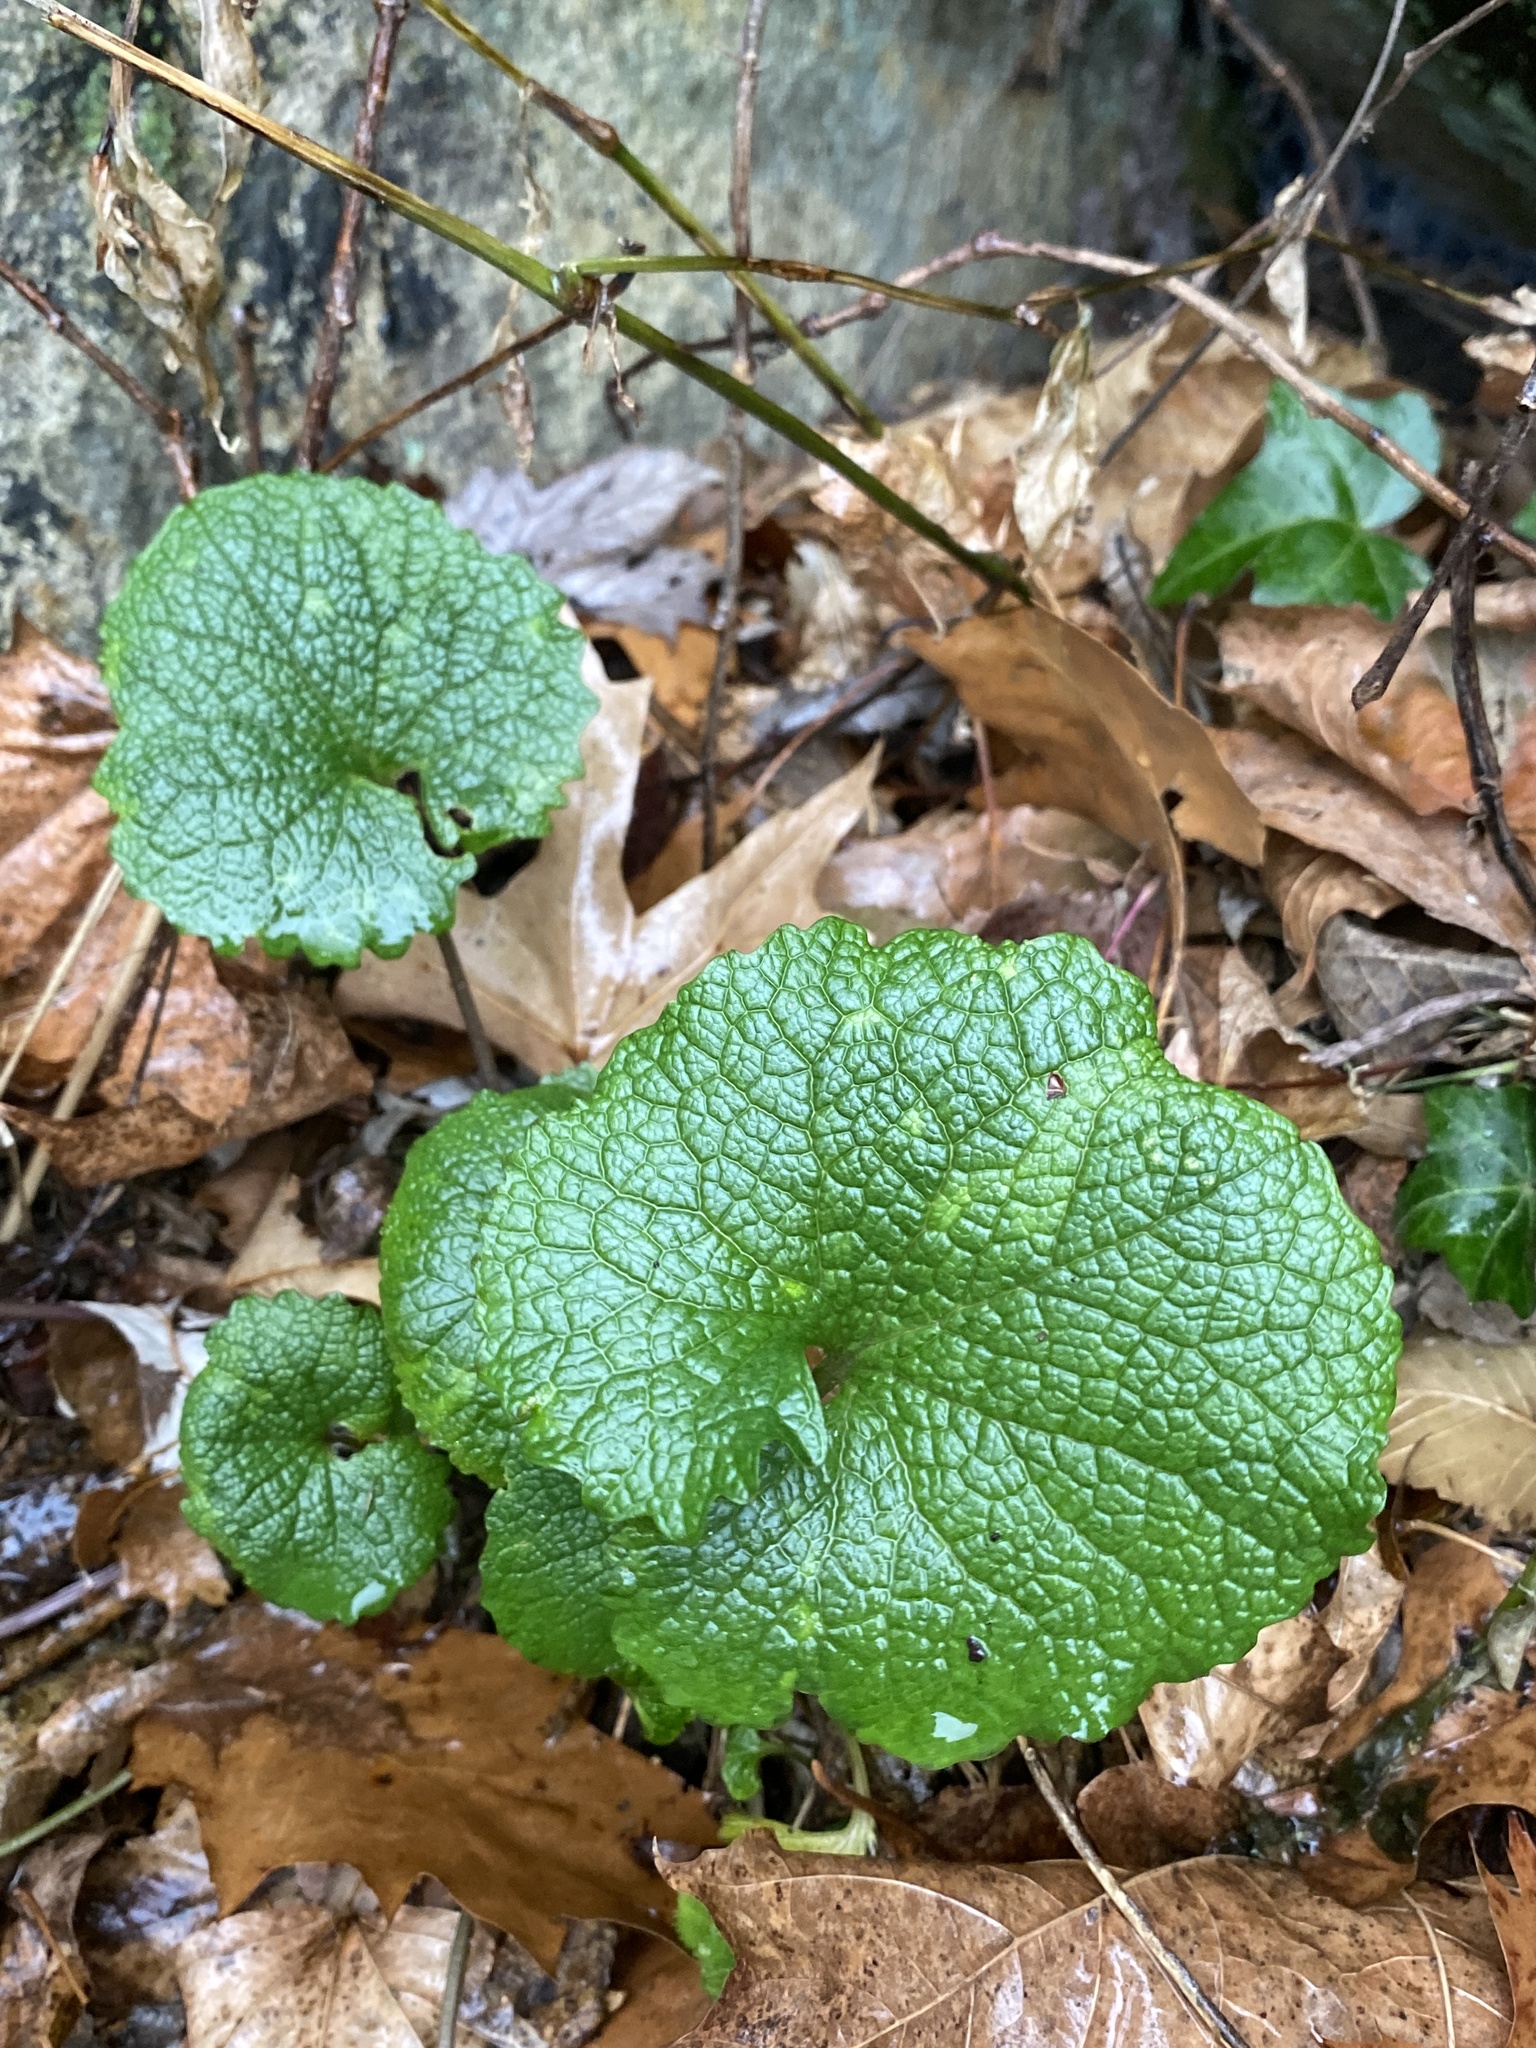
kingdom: Plantae
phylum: Tracheophyta
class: Magnoliopsida
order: Brassicales
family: Brassicaceae
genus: Alliaria
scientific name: Alliaria petiolata
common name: Garlic mustard
